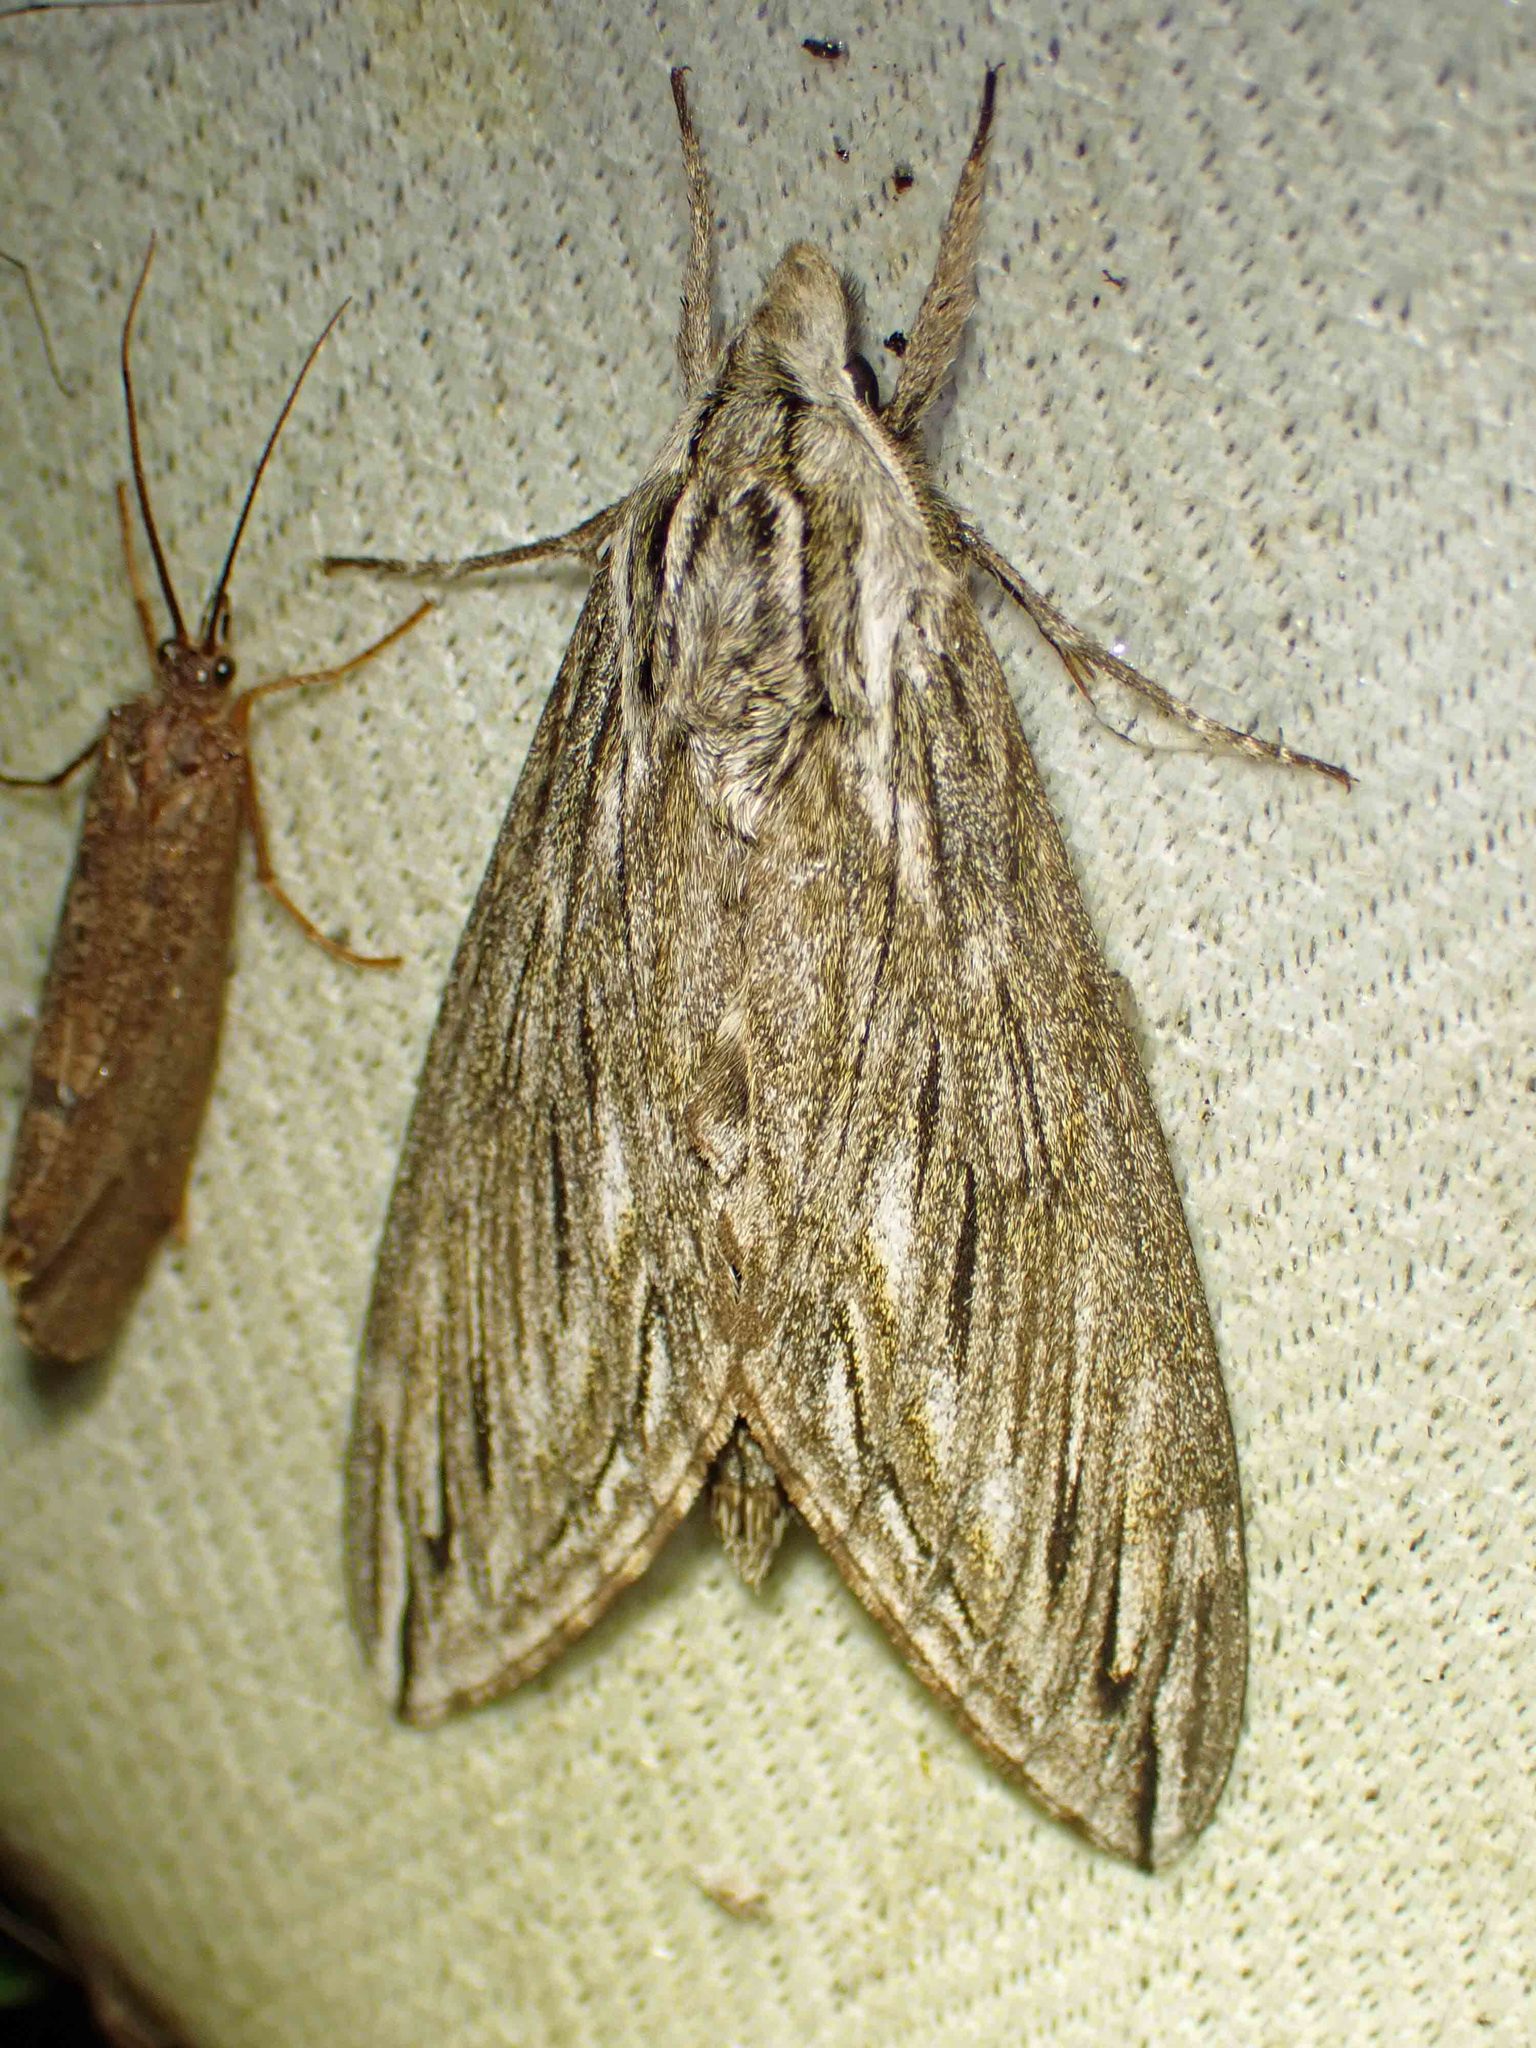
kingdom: Animalia
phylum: Arthropoda
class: Insecta
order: Lepidoptera
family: Sphingidae
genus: Sphinx
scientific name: Sphinx canadensis
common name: Canadian sphinx
